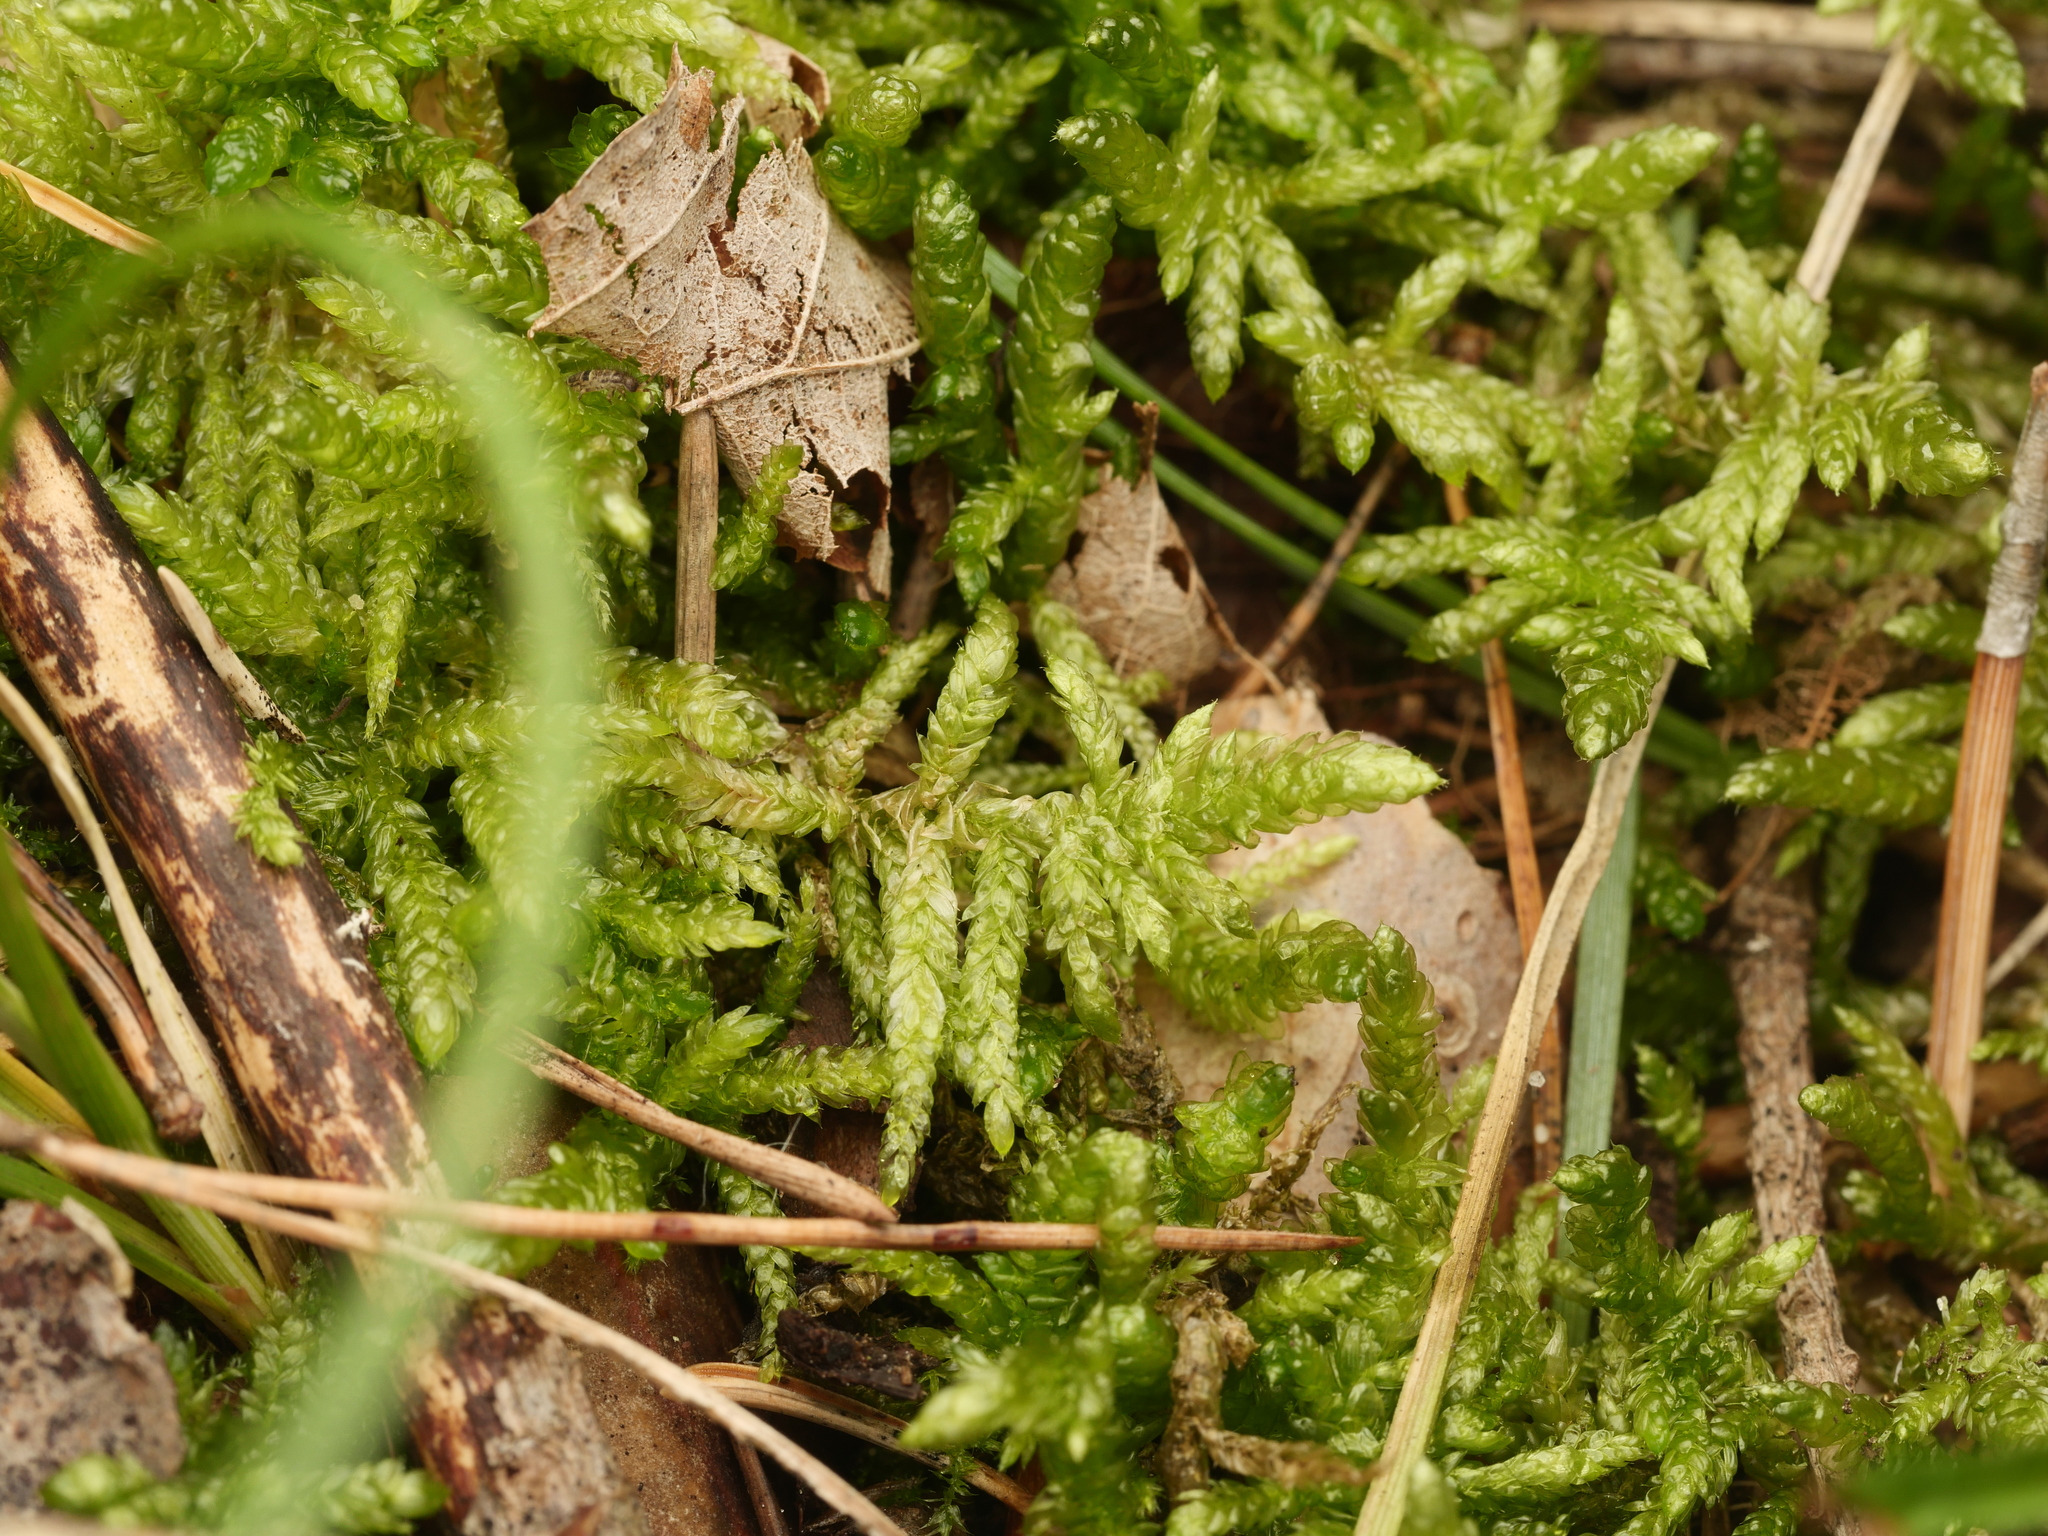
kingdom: Plantae
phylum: Bryophyta
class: Bryopsida
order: Hypnales
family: Brachytheciaceae
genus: Pseudoscleropodium
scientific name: Pseudoscleropodium purum
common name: Neat feather-moss
